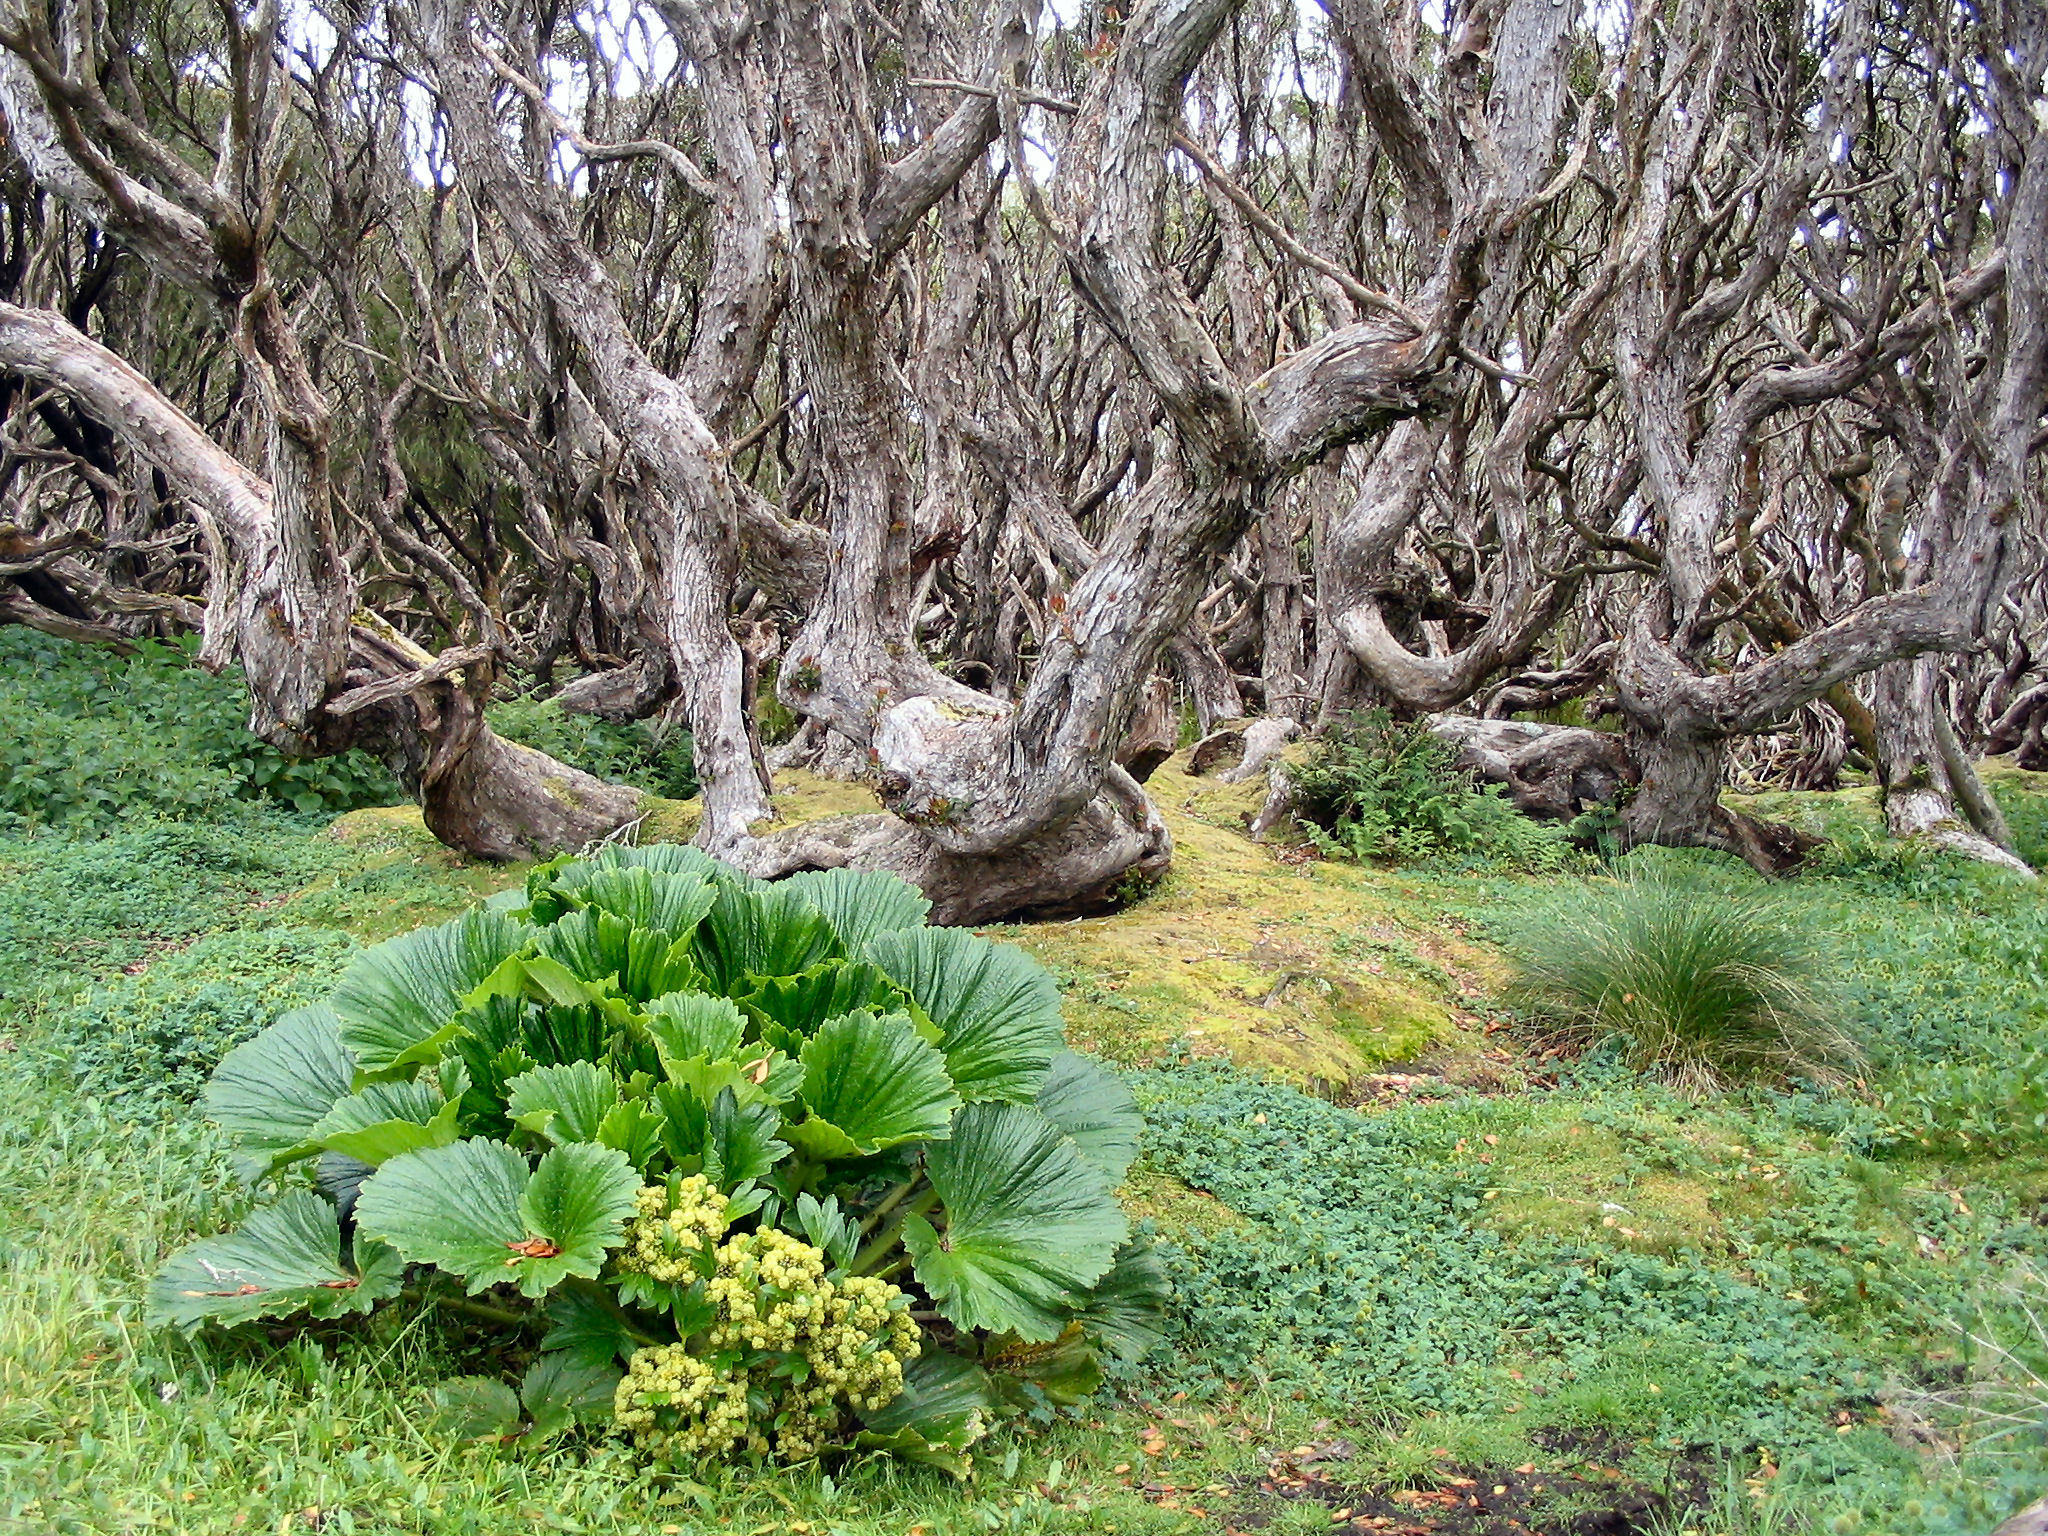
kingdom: Plantae
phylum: Tracheophyta
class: Magnoliopsida
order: Myrtales
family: Myrtaceae
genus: Metrosideros
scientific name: Metrosideros umbellata
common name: Southern rata
